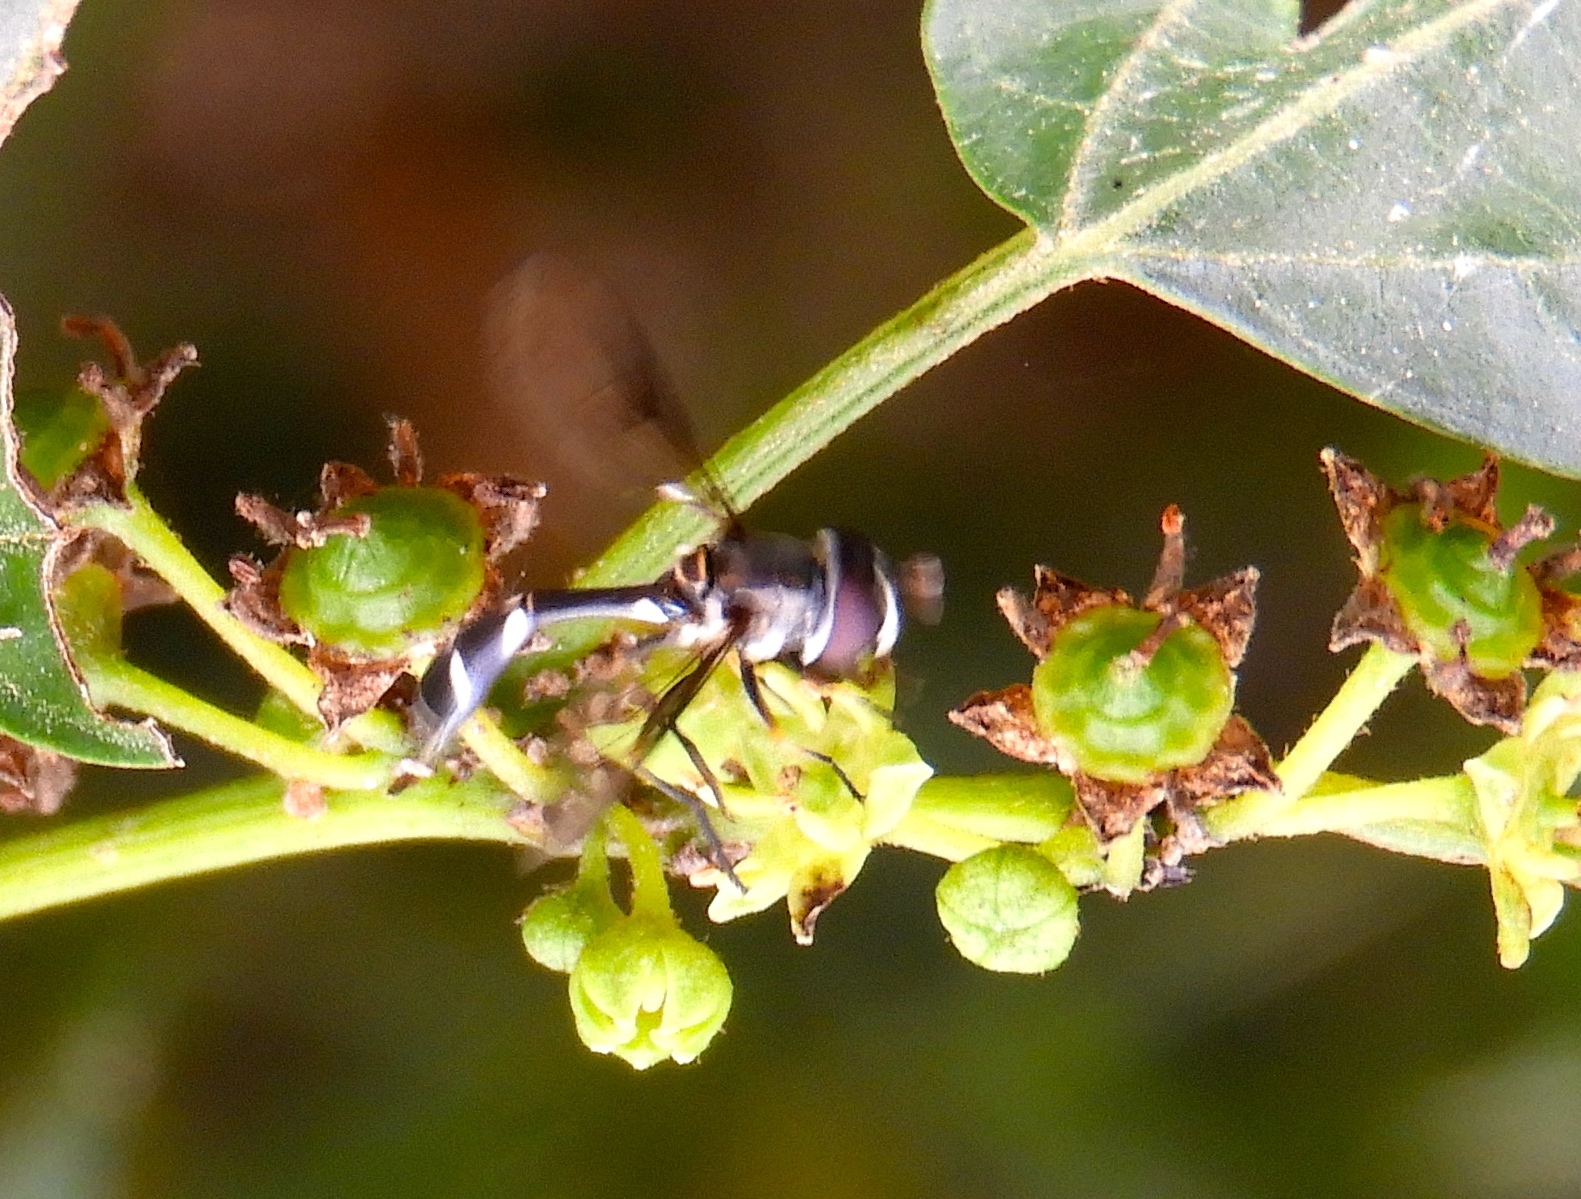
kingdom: Animalia
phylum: Arthropoda
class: Insecta
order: Diptera
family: Syrphidae
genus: Dioprosopa
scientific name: Dioprosopa clavatus
